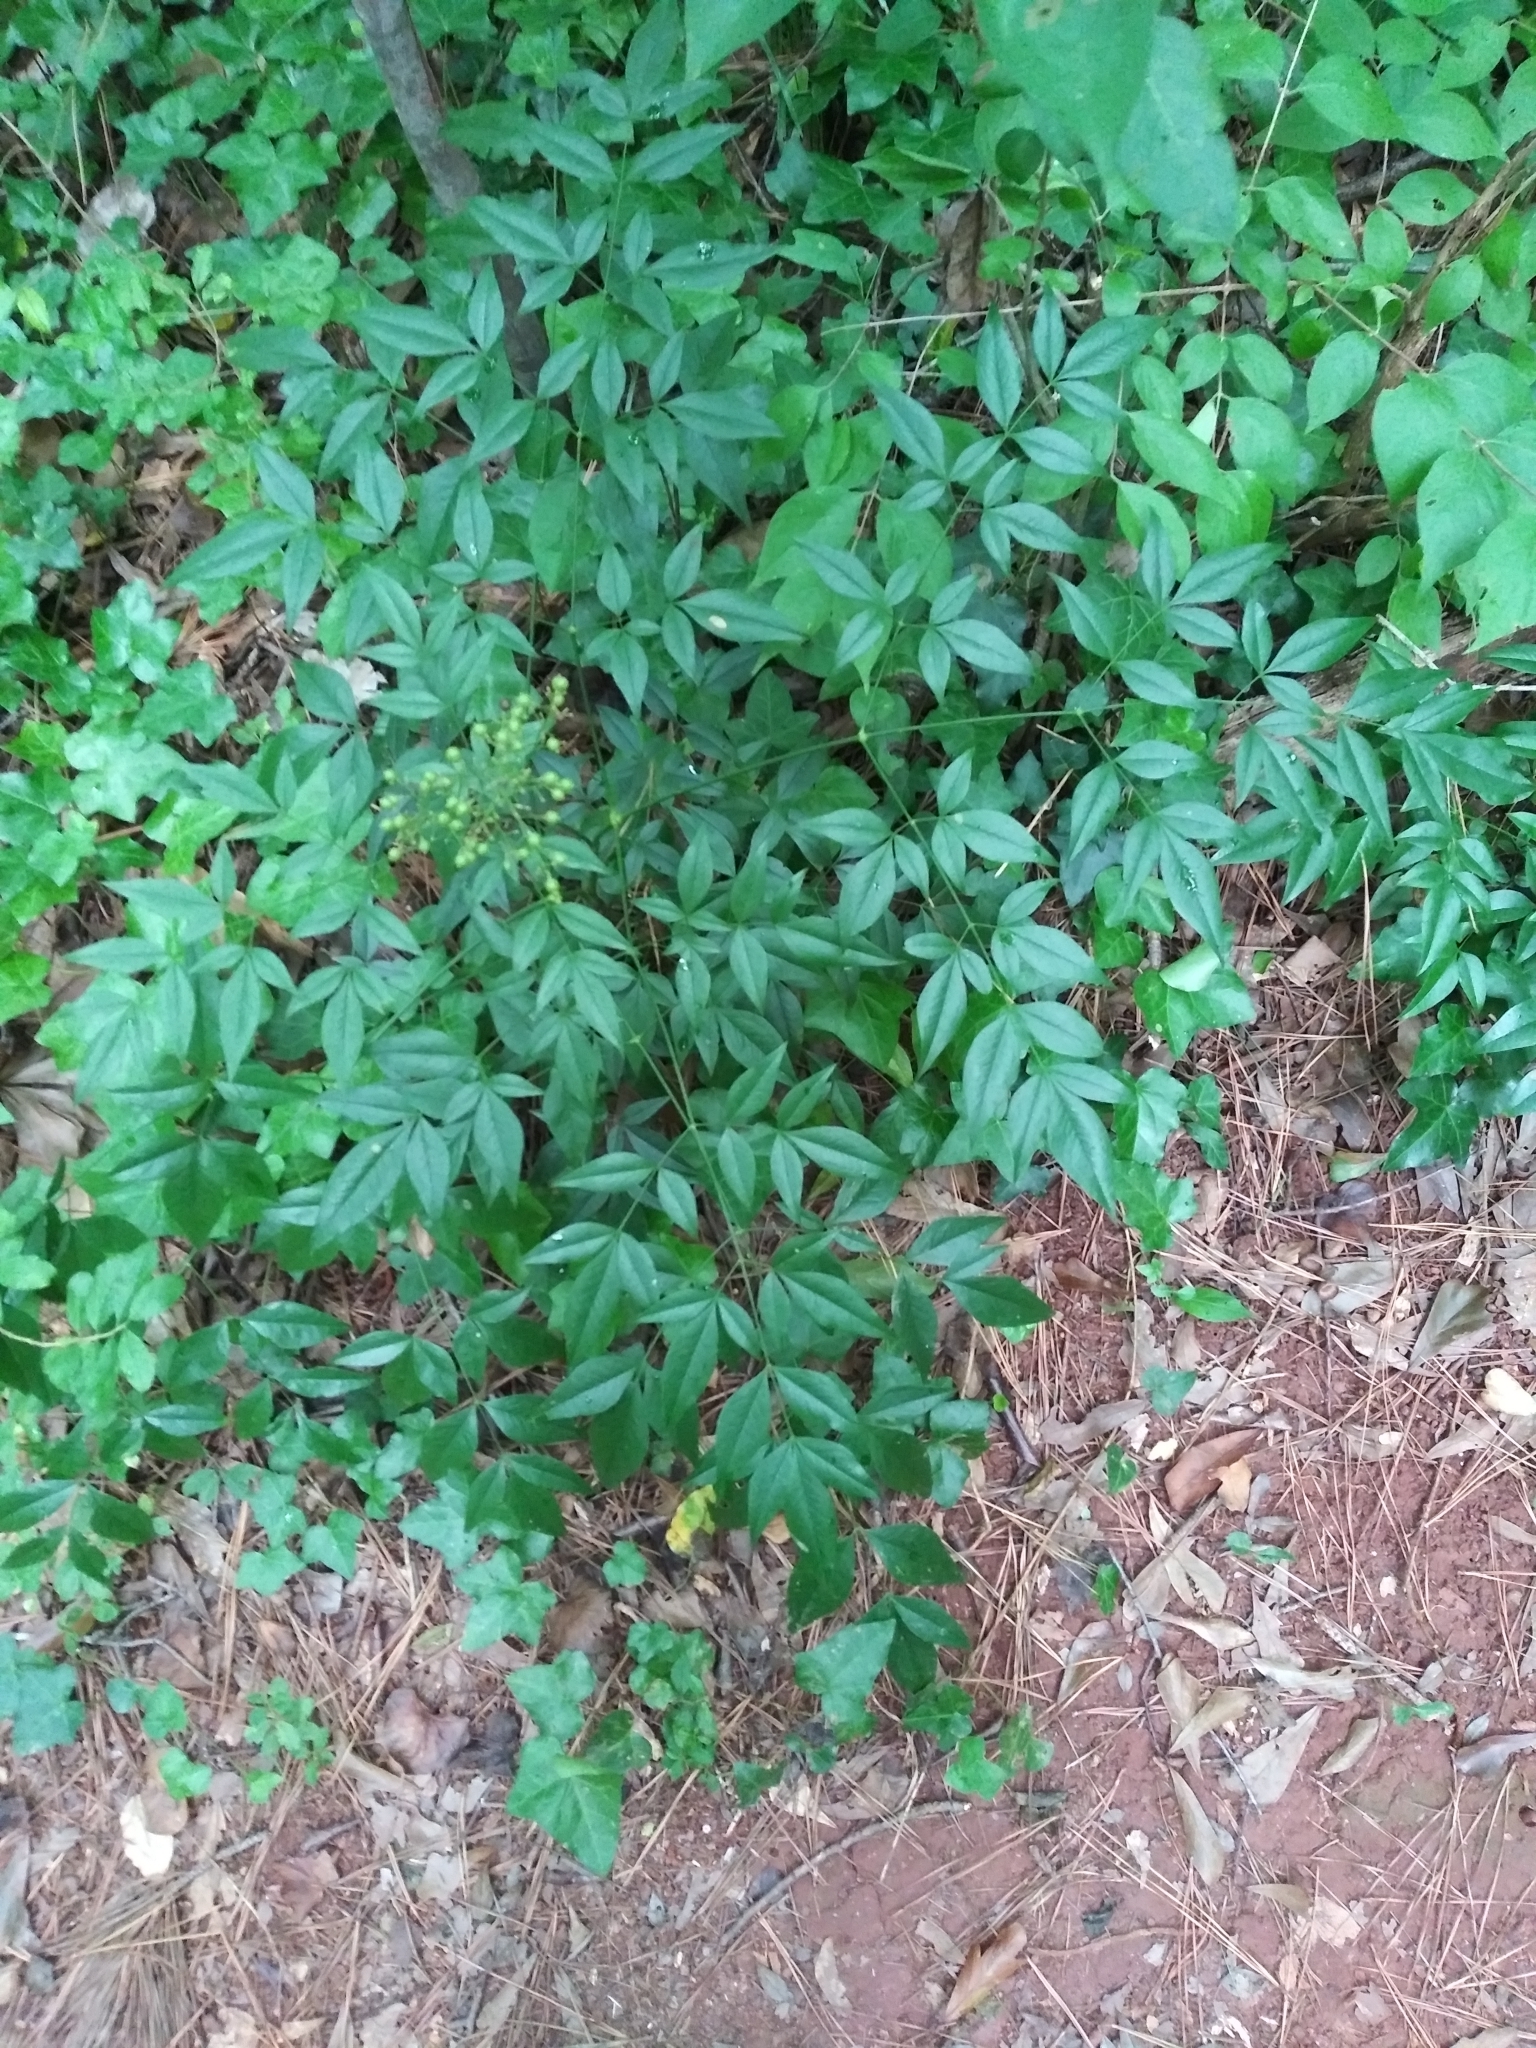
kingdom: Plantae
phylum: Tracheophyta
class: Magnoliopsida
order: Ranunculales
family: Berberidaceae
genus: Nandina
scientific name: Nandina domestica
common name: Sacred bamboo
